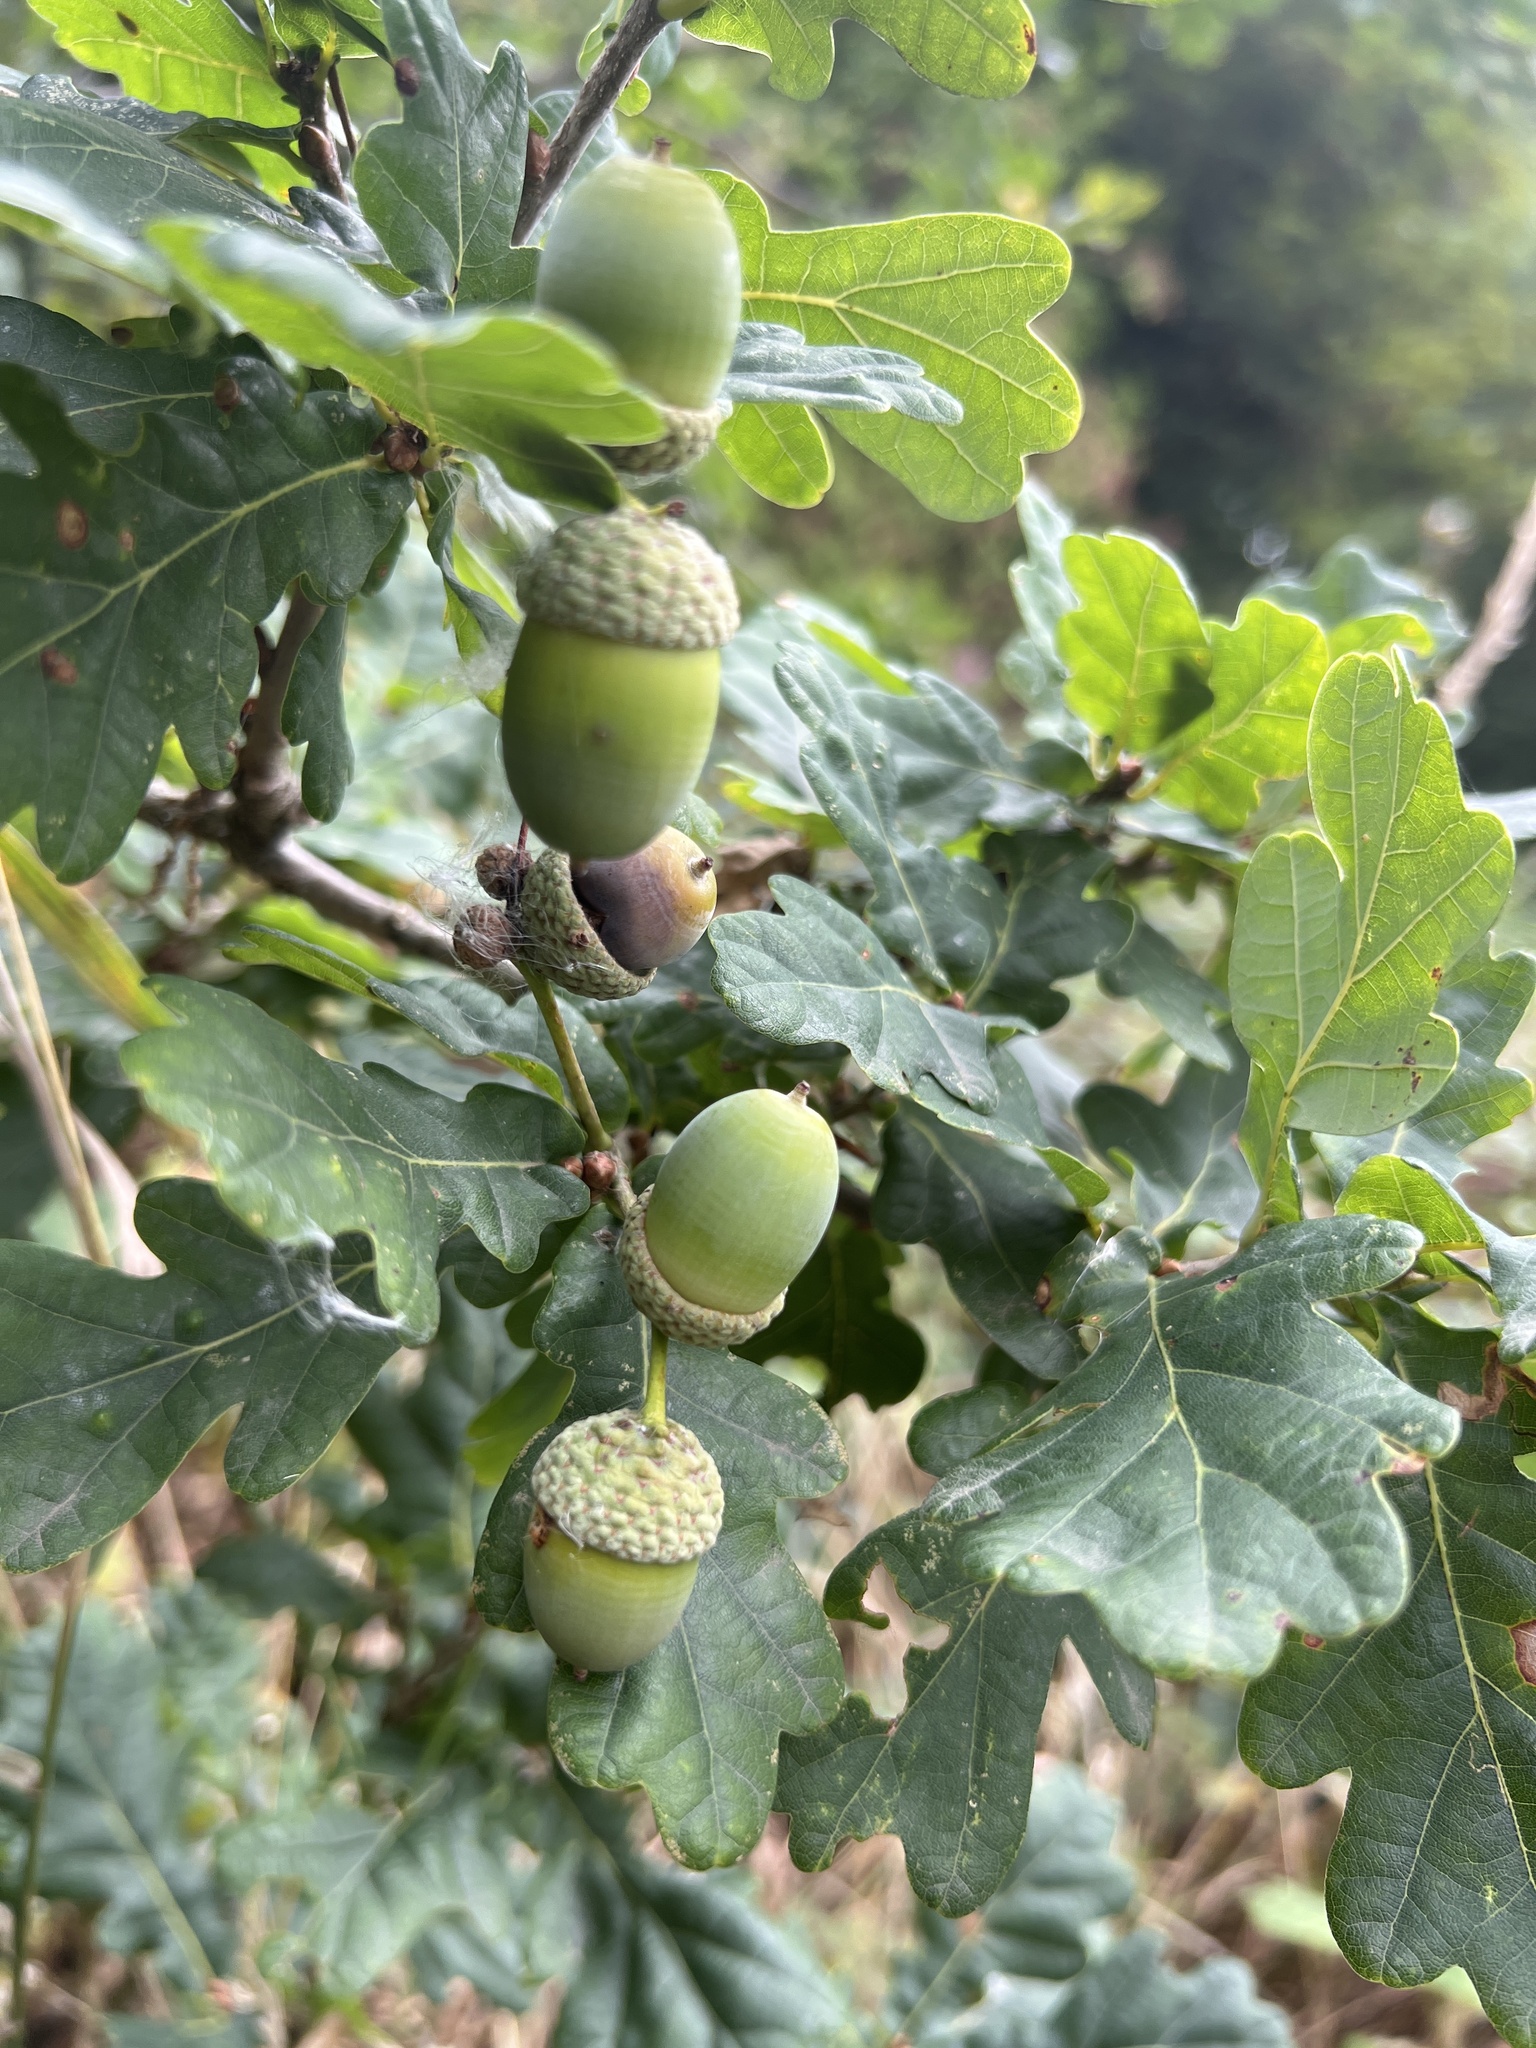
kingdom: Plantae
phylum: Tracheophyta
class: Magnoliopsida
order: Fagales
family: Fagaceae
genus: Quercus
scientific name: Quercus robur
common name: Pedunculate oak
